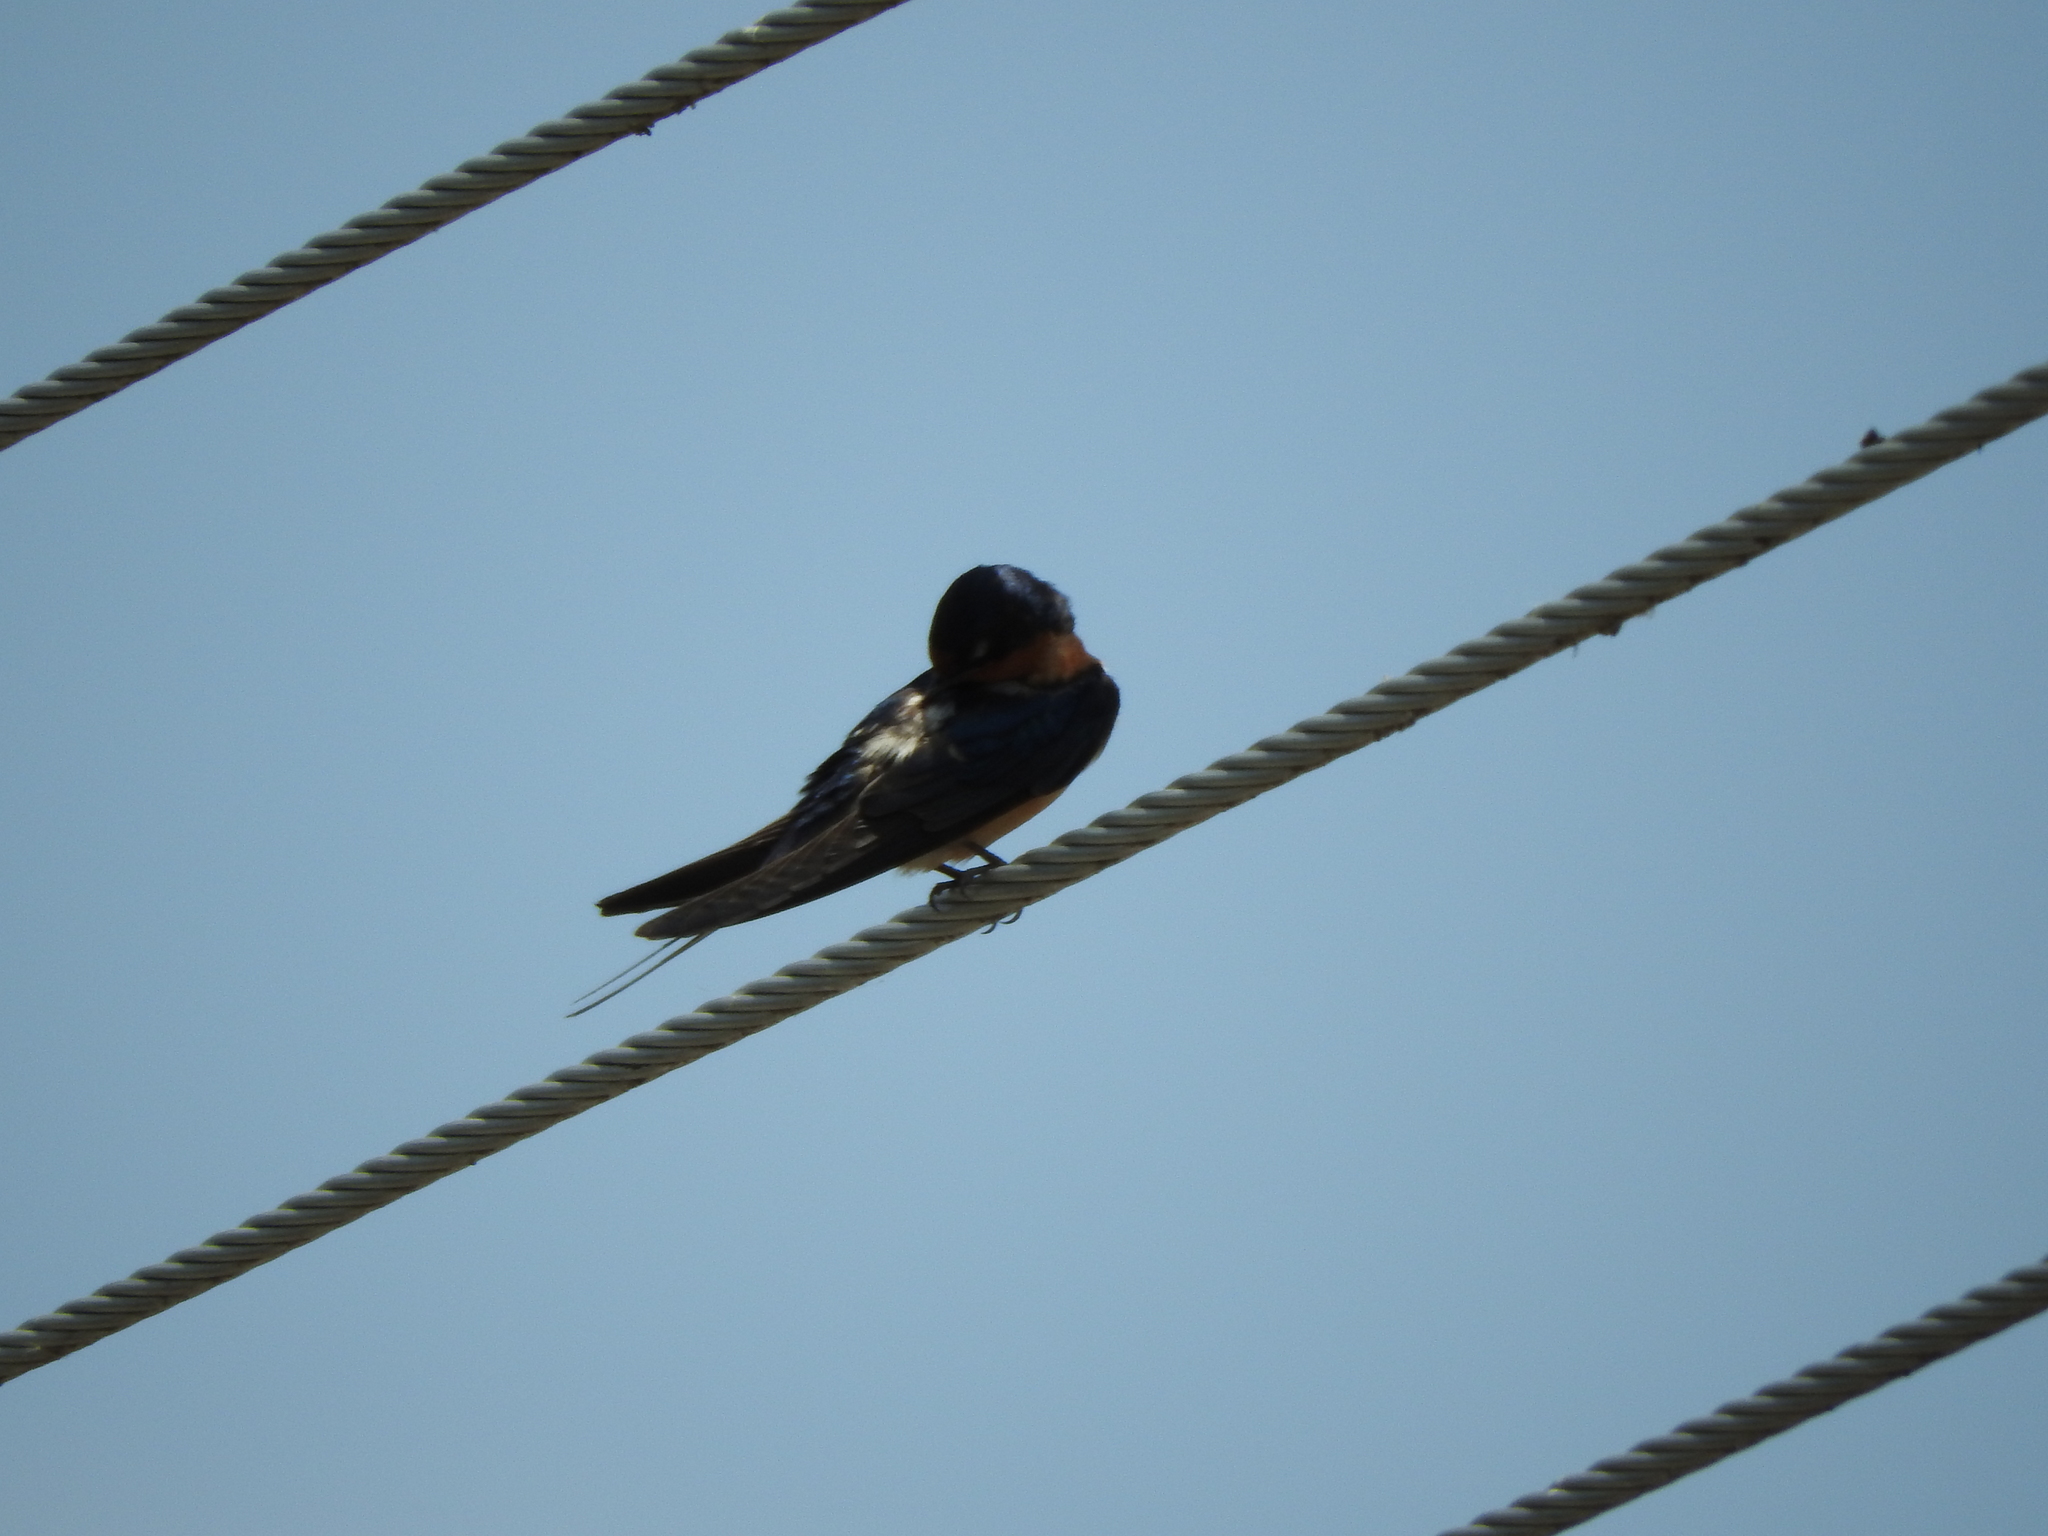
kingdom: Animalia
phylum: Chordata
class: Aves
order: Passeriformes
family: Hirundinidae
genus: Hirundo
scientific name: Hirundo rustica
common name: Barn swallow
